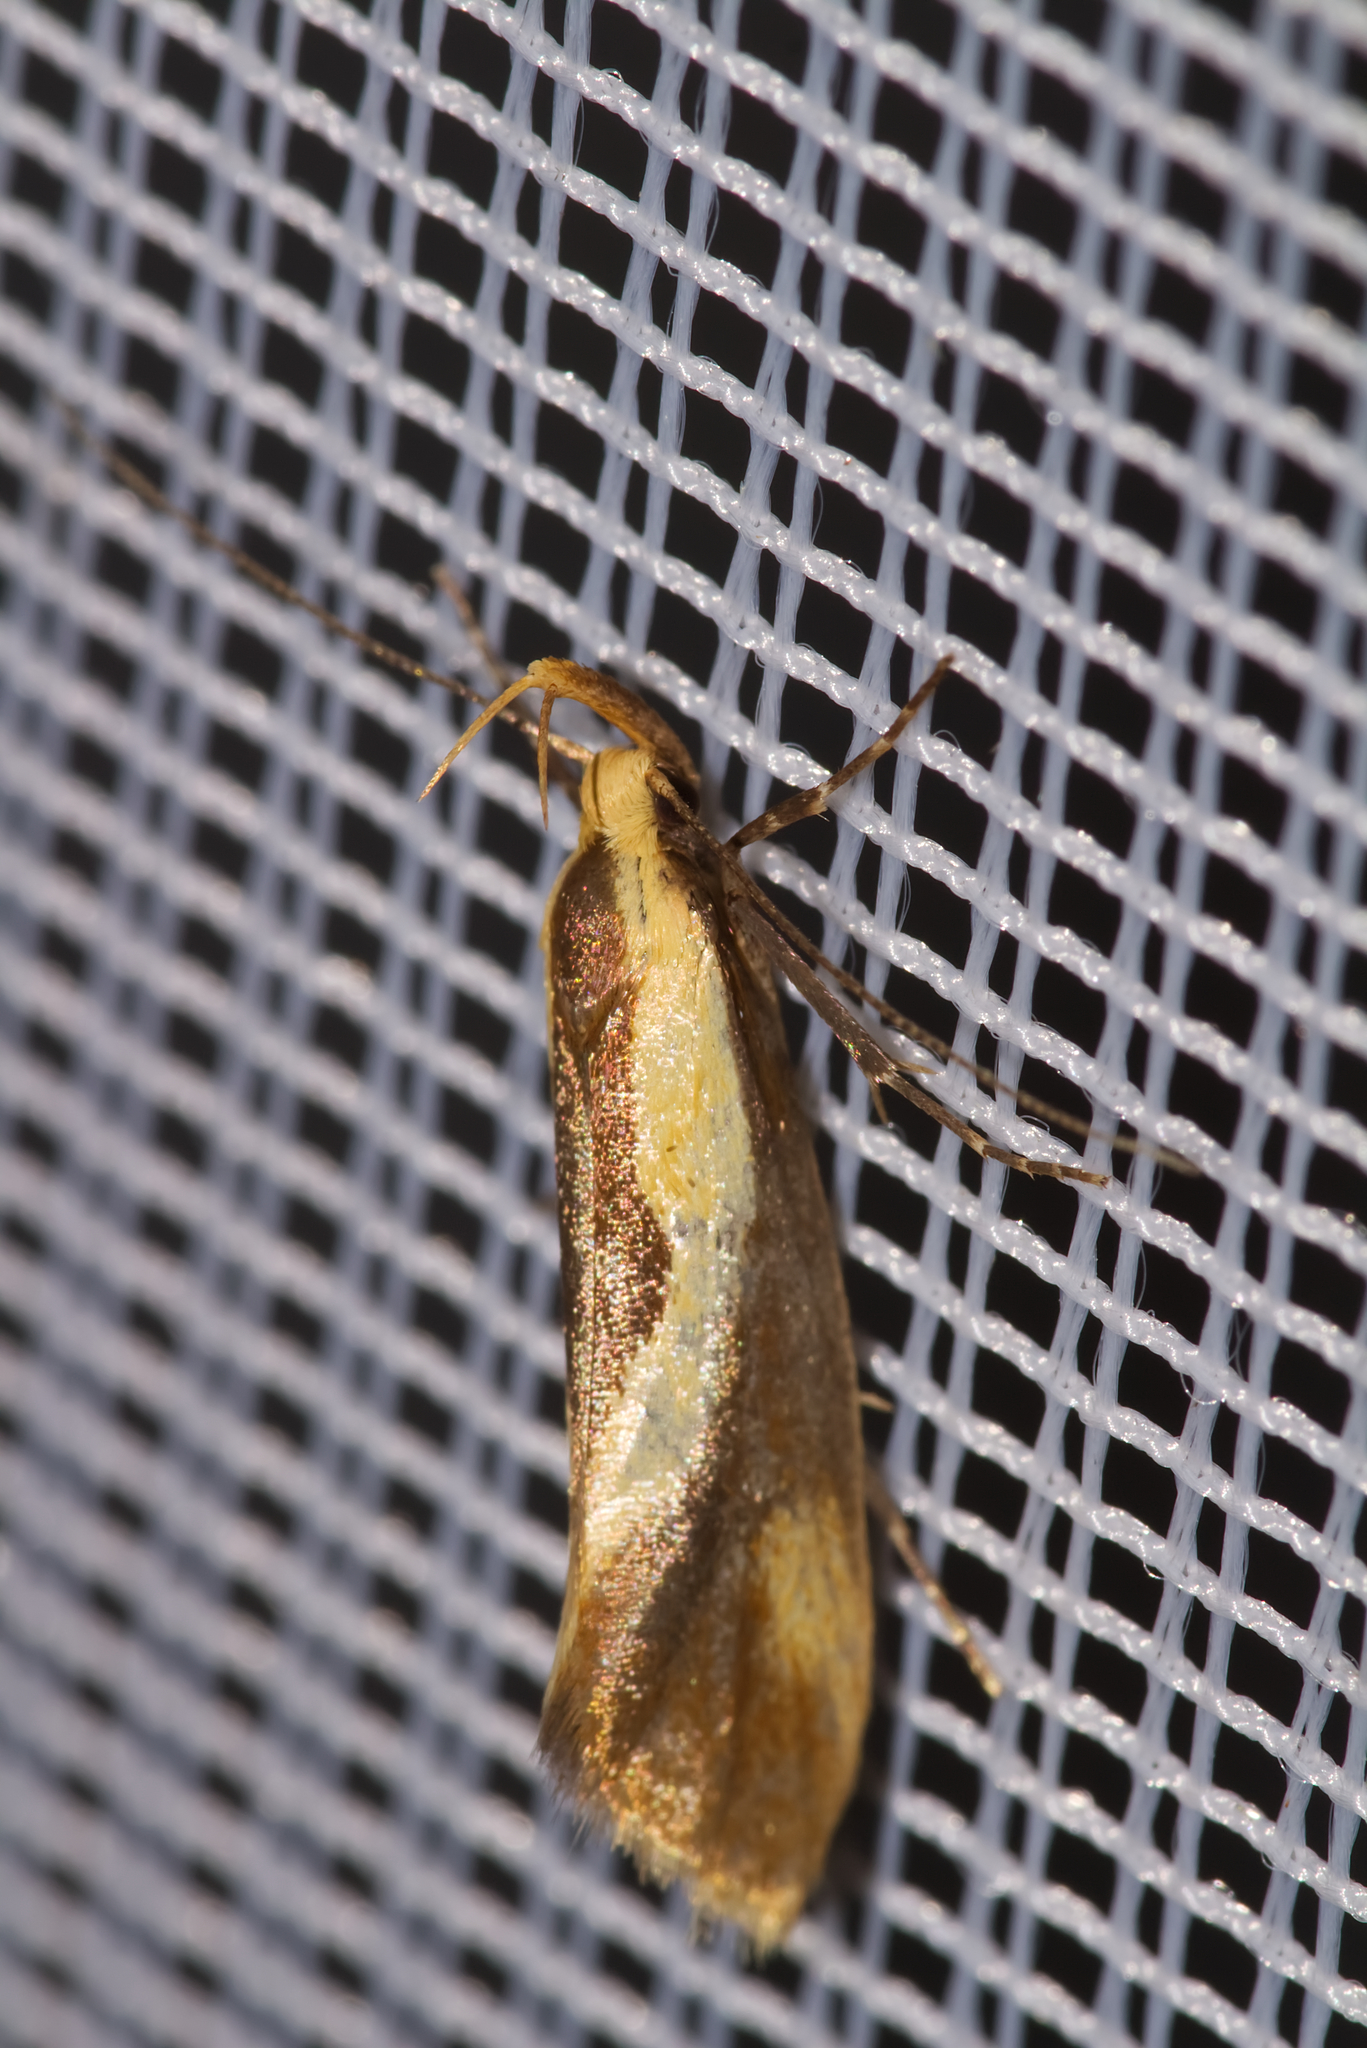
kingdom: Animalia
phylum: Arthropoda
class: Insecta
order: Lepidoptera
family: Oecophoridae
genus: Harpella
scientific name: Harpella forficella
